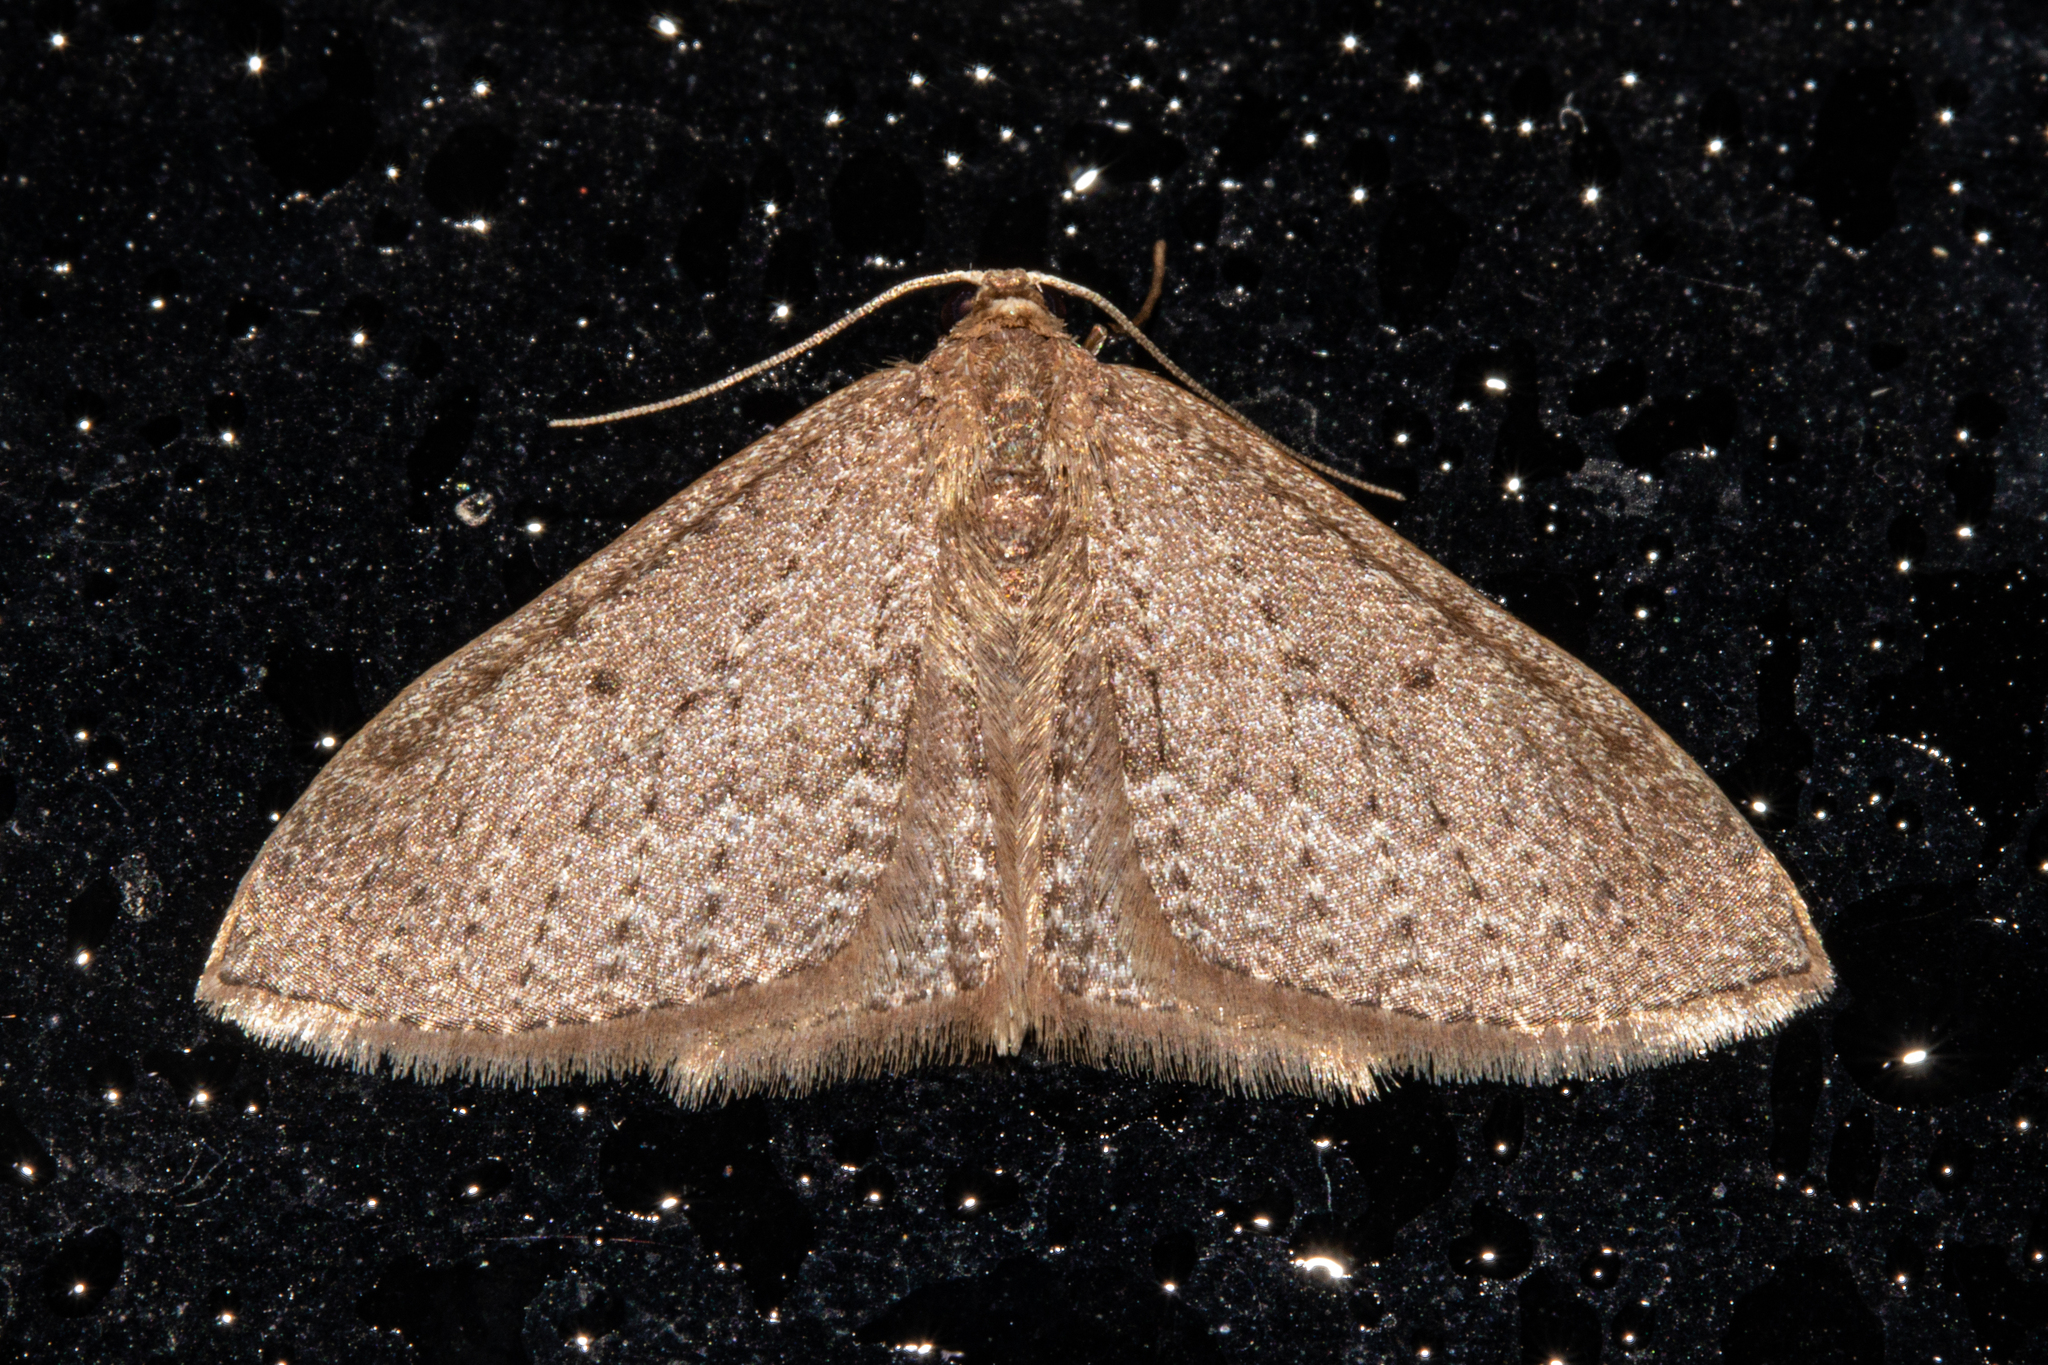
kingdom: Animalia
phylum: Arthropoda
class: Insecta
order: Lepidoptera
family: Geometridae
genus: Poecilasthena
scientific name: Poecilasthena schistaria
